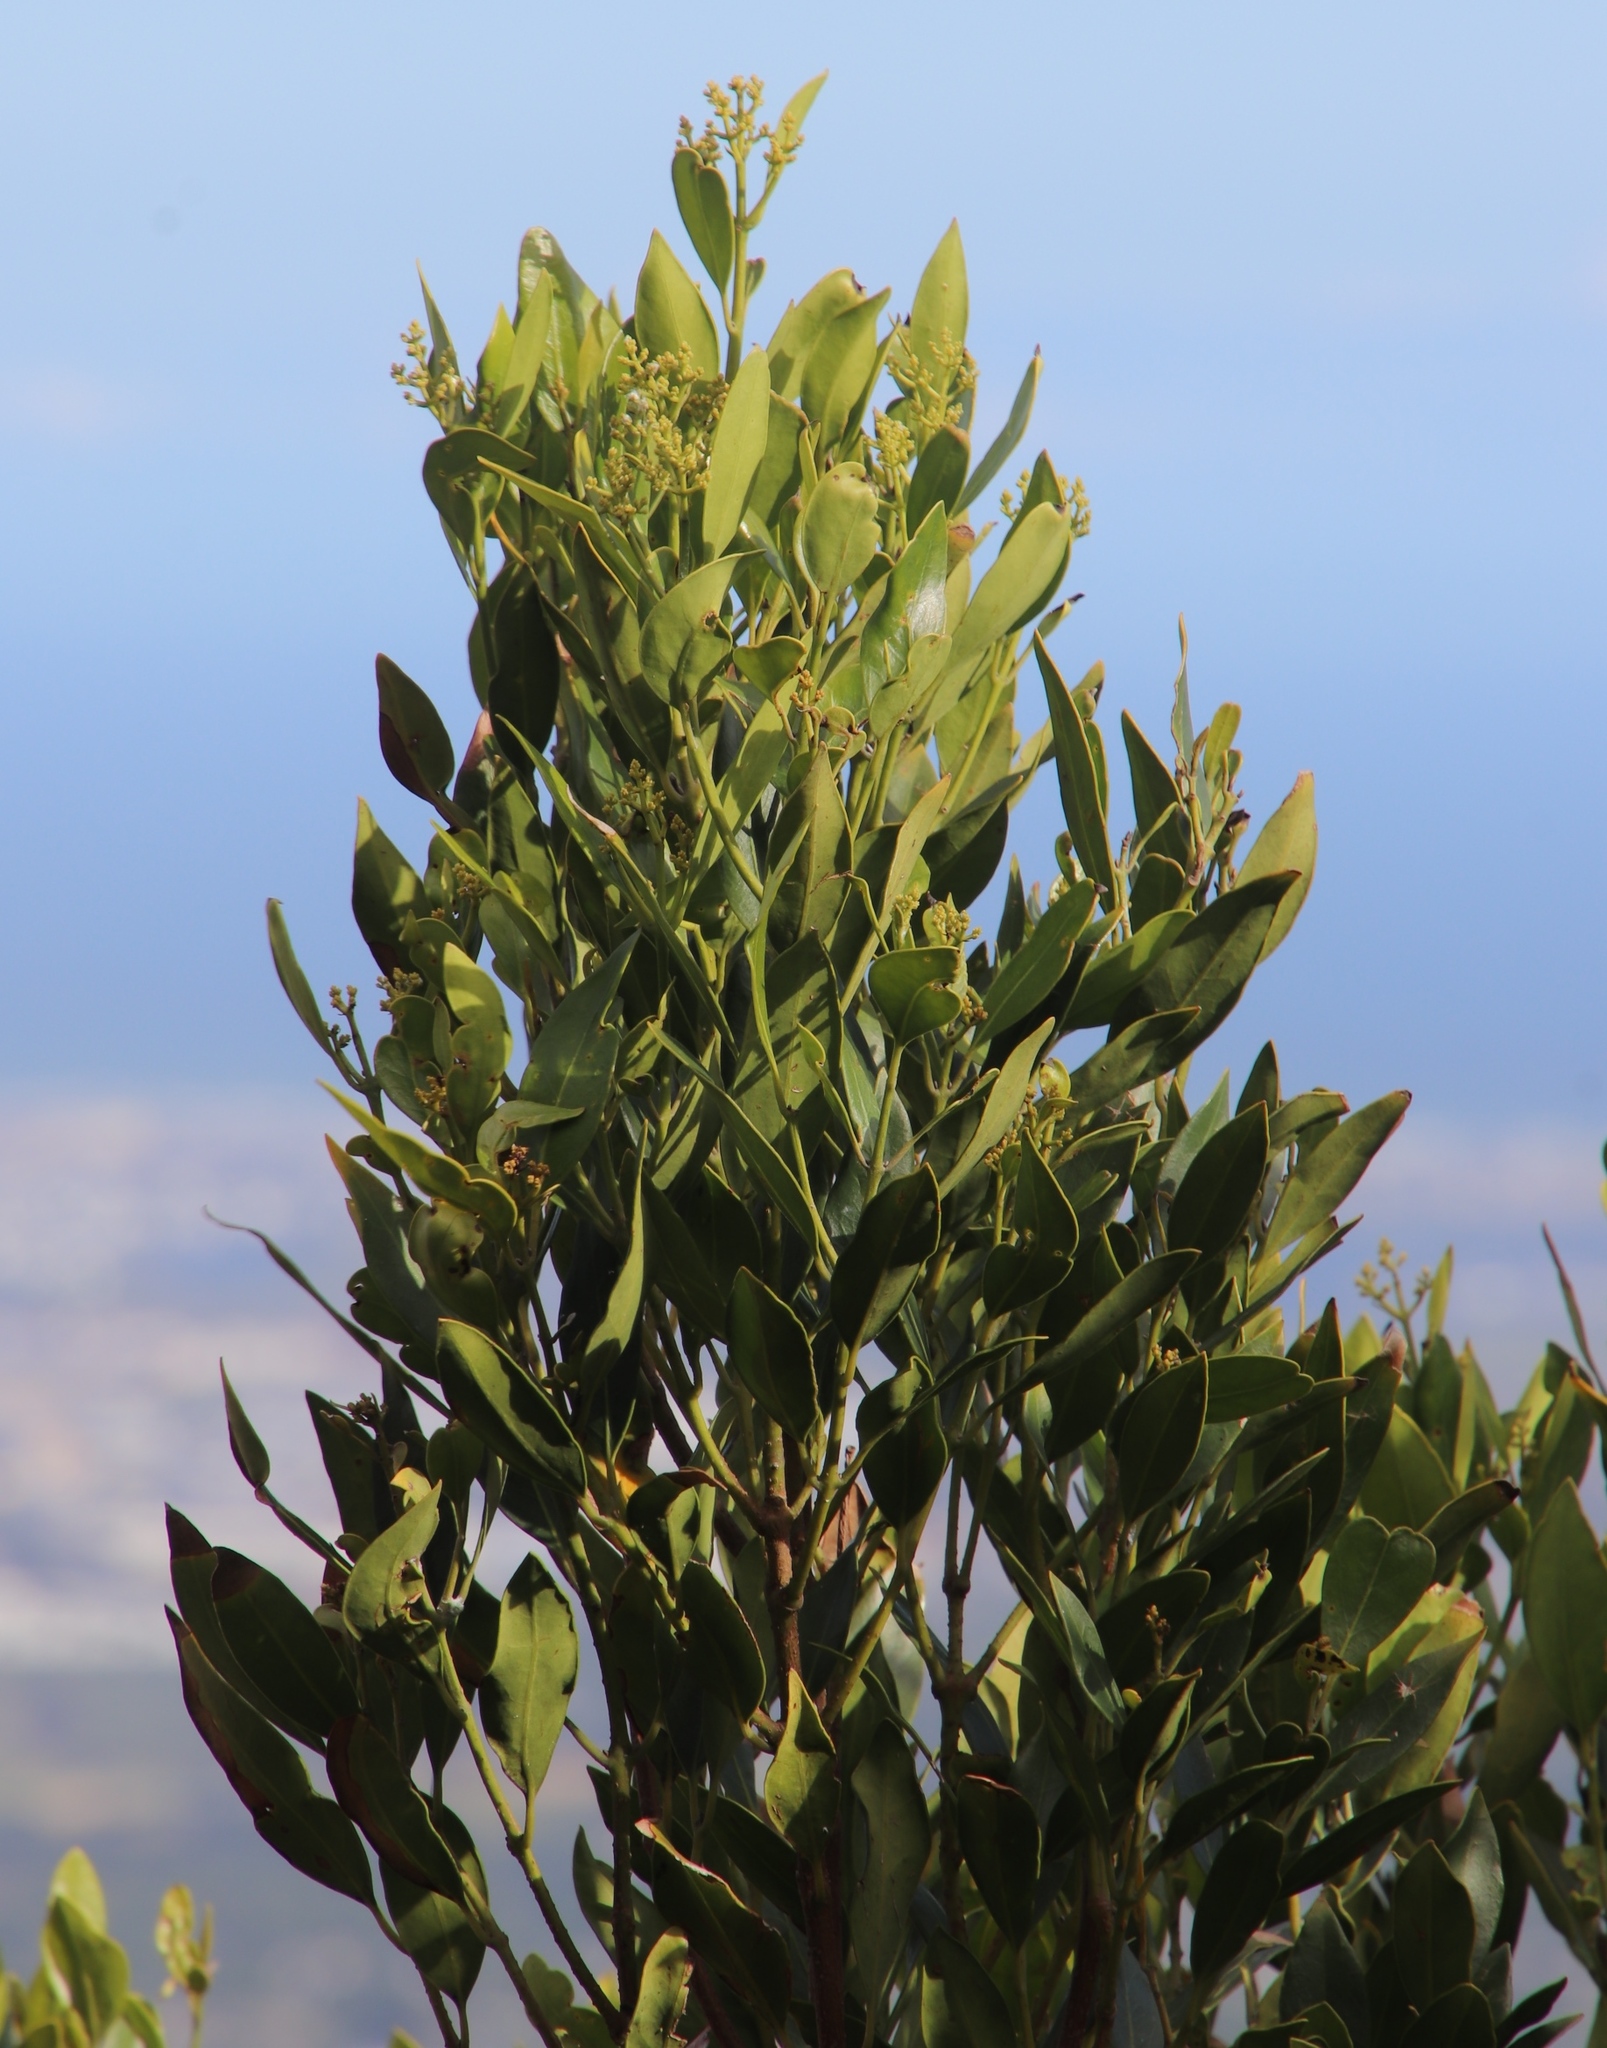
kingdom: Plantae
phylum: Tracheophyta
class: Magnoliopsida
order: Lamiales
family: Oleaceae
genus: Olea
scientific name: Olea capensis
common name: Black ironwood
